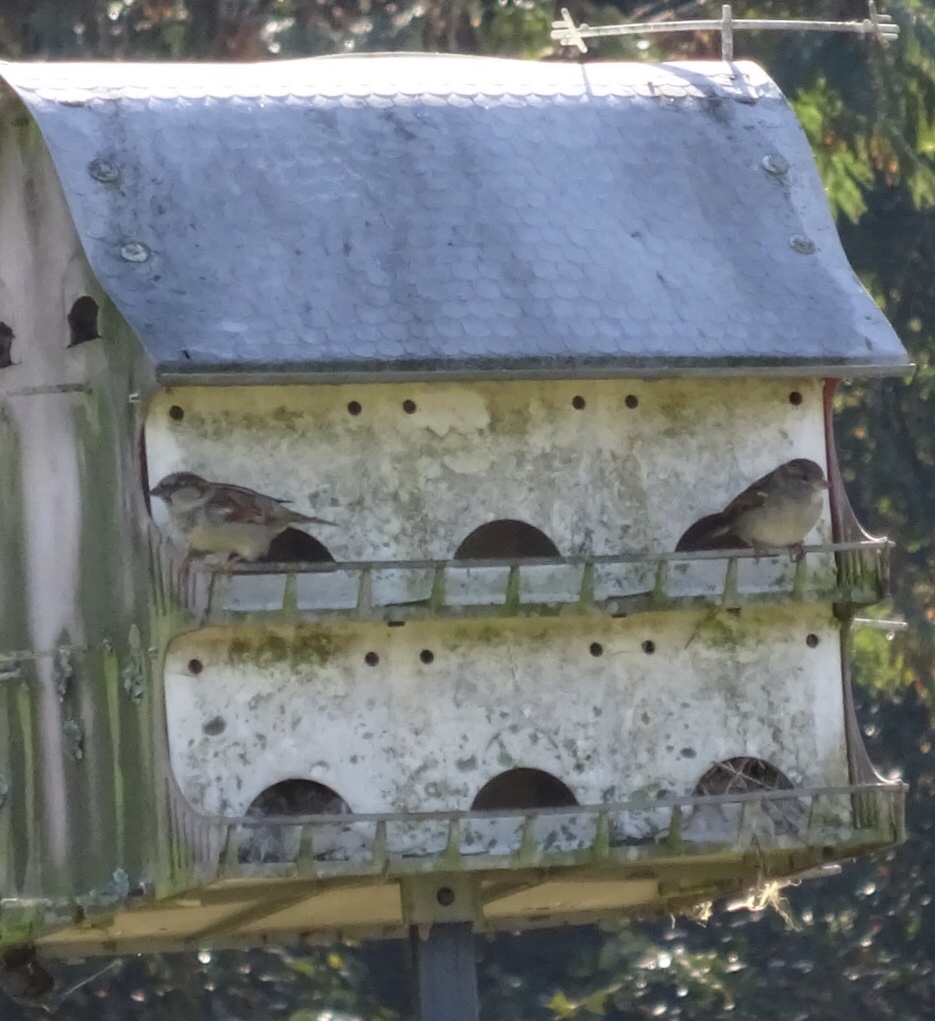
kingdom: Animalia
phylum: Chordata
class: Aves
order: Passeriformes
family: Passeridae
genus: Passer
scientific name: Passer domesticus
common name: House sparrow
